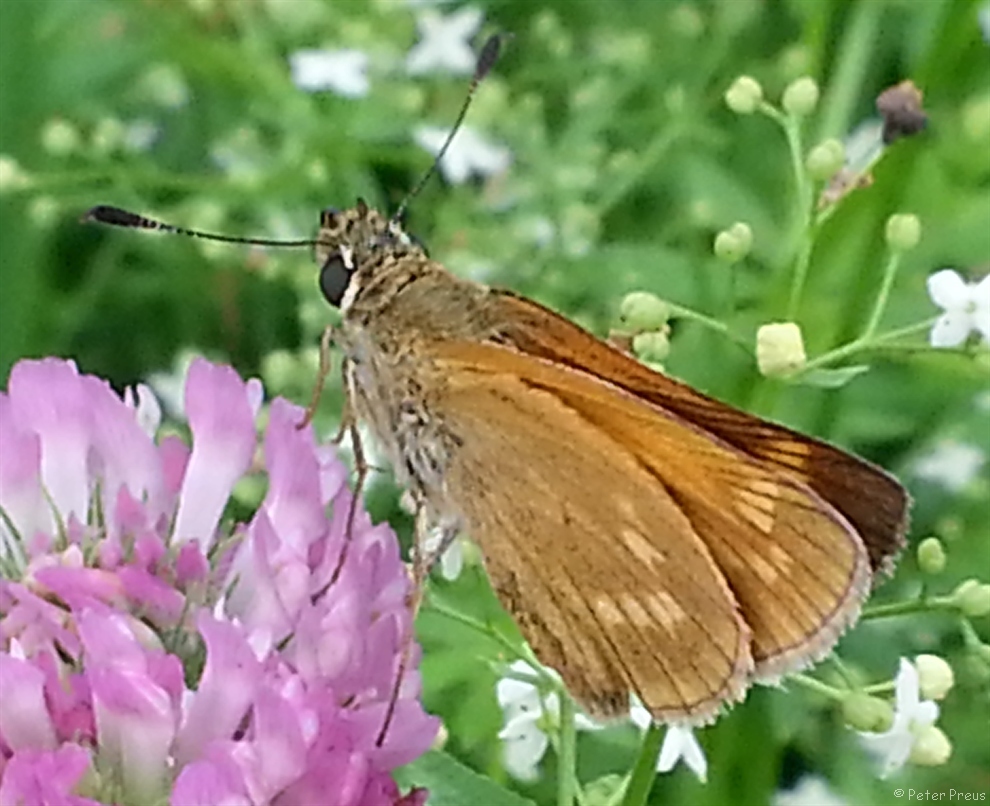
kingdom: Animalia
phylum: Arthropoda
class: Insecta
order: Lepidoptera
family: Hesperiidae
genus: Ochlodes
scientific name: Ochlodes venata
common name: Large skipper
